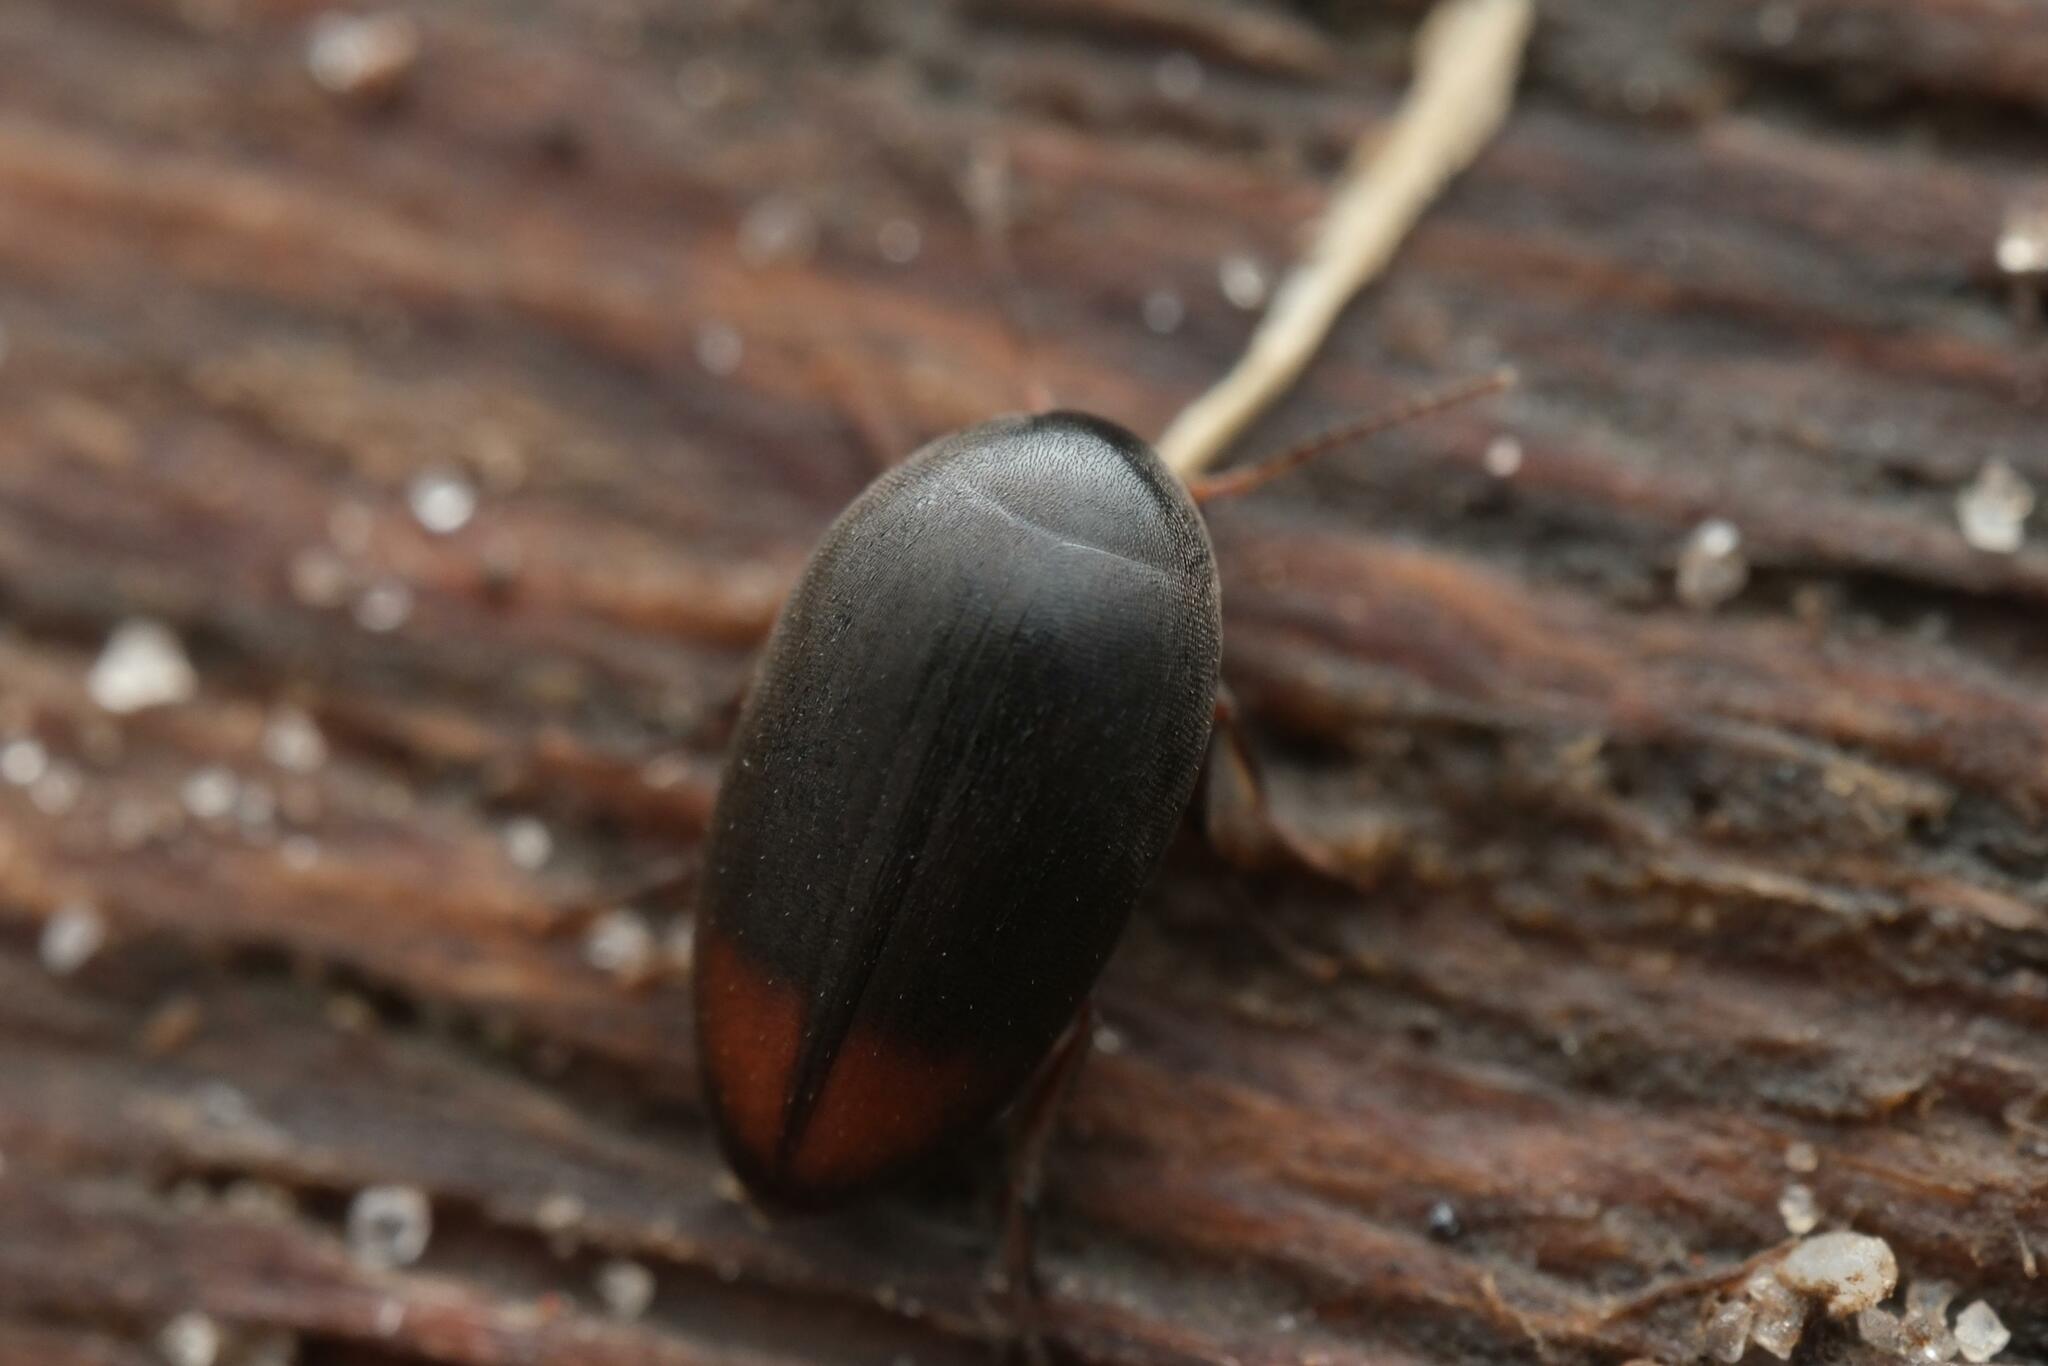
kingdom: Animalia
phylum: Arthropoda
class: Insecta
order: Coleoptera
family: Eucinetidae
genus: Eucinetus
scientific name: Eucinetus haemorrhoidalis
